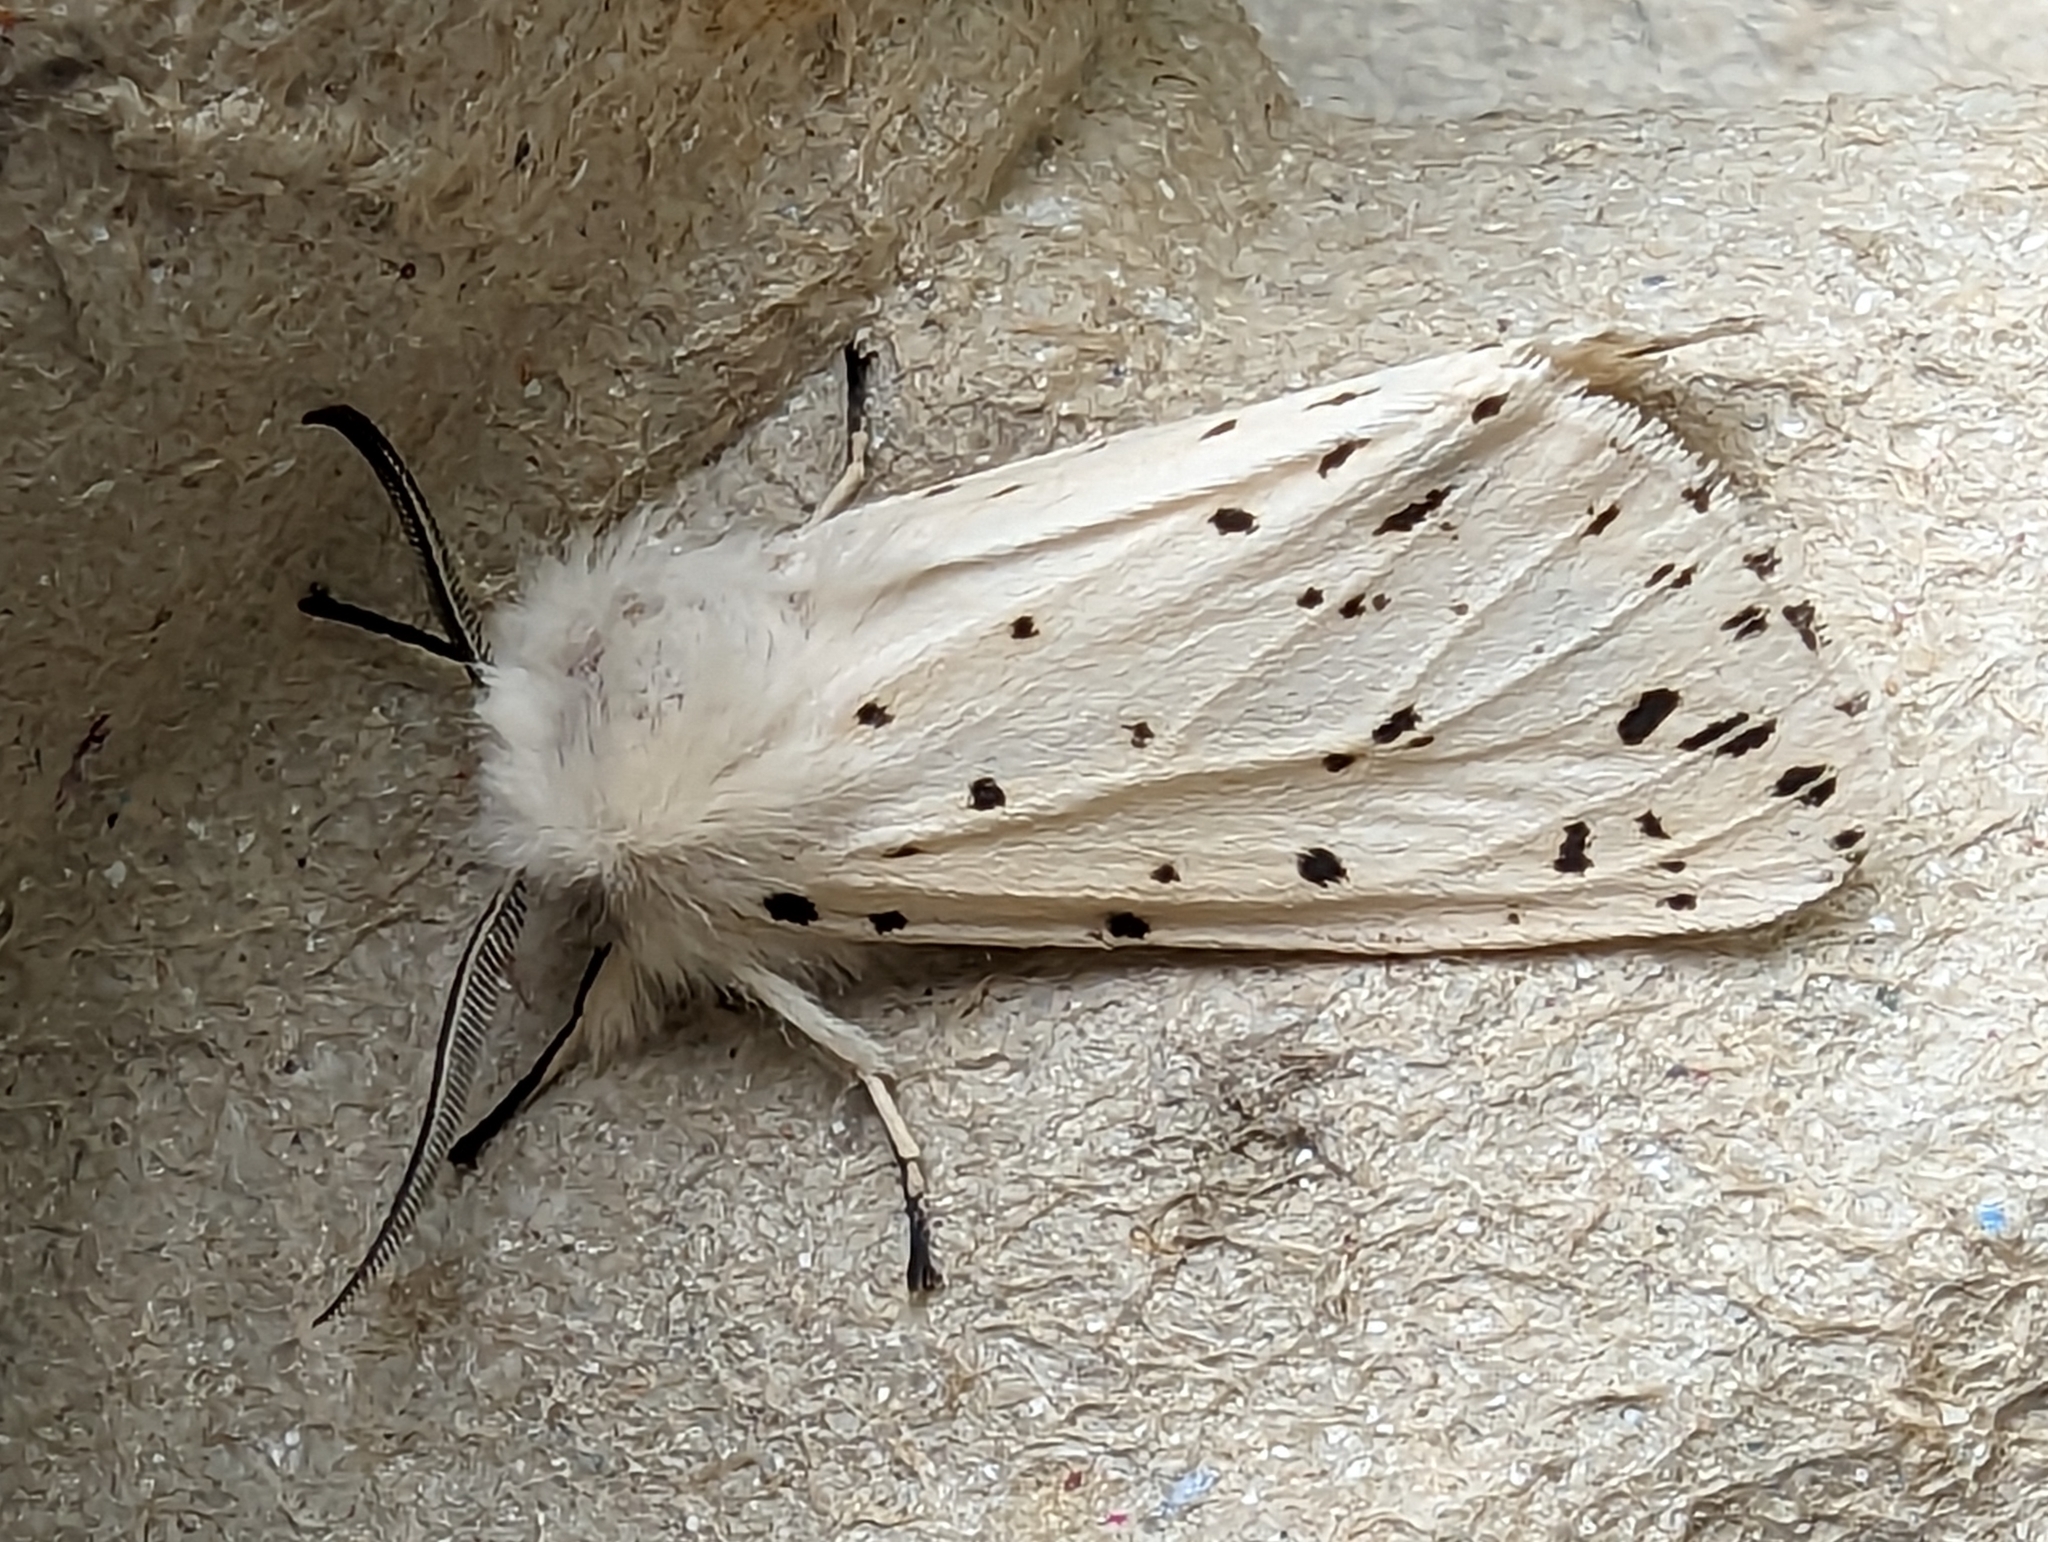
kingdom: Animalia
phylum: Arthropoda
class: Insecta
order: Lepidoptera
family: Erebidae
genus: Spilosoma
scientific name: Spilosoma lubricipeda
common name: White ermine
